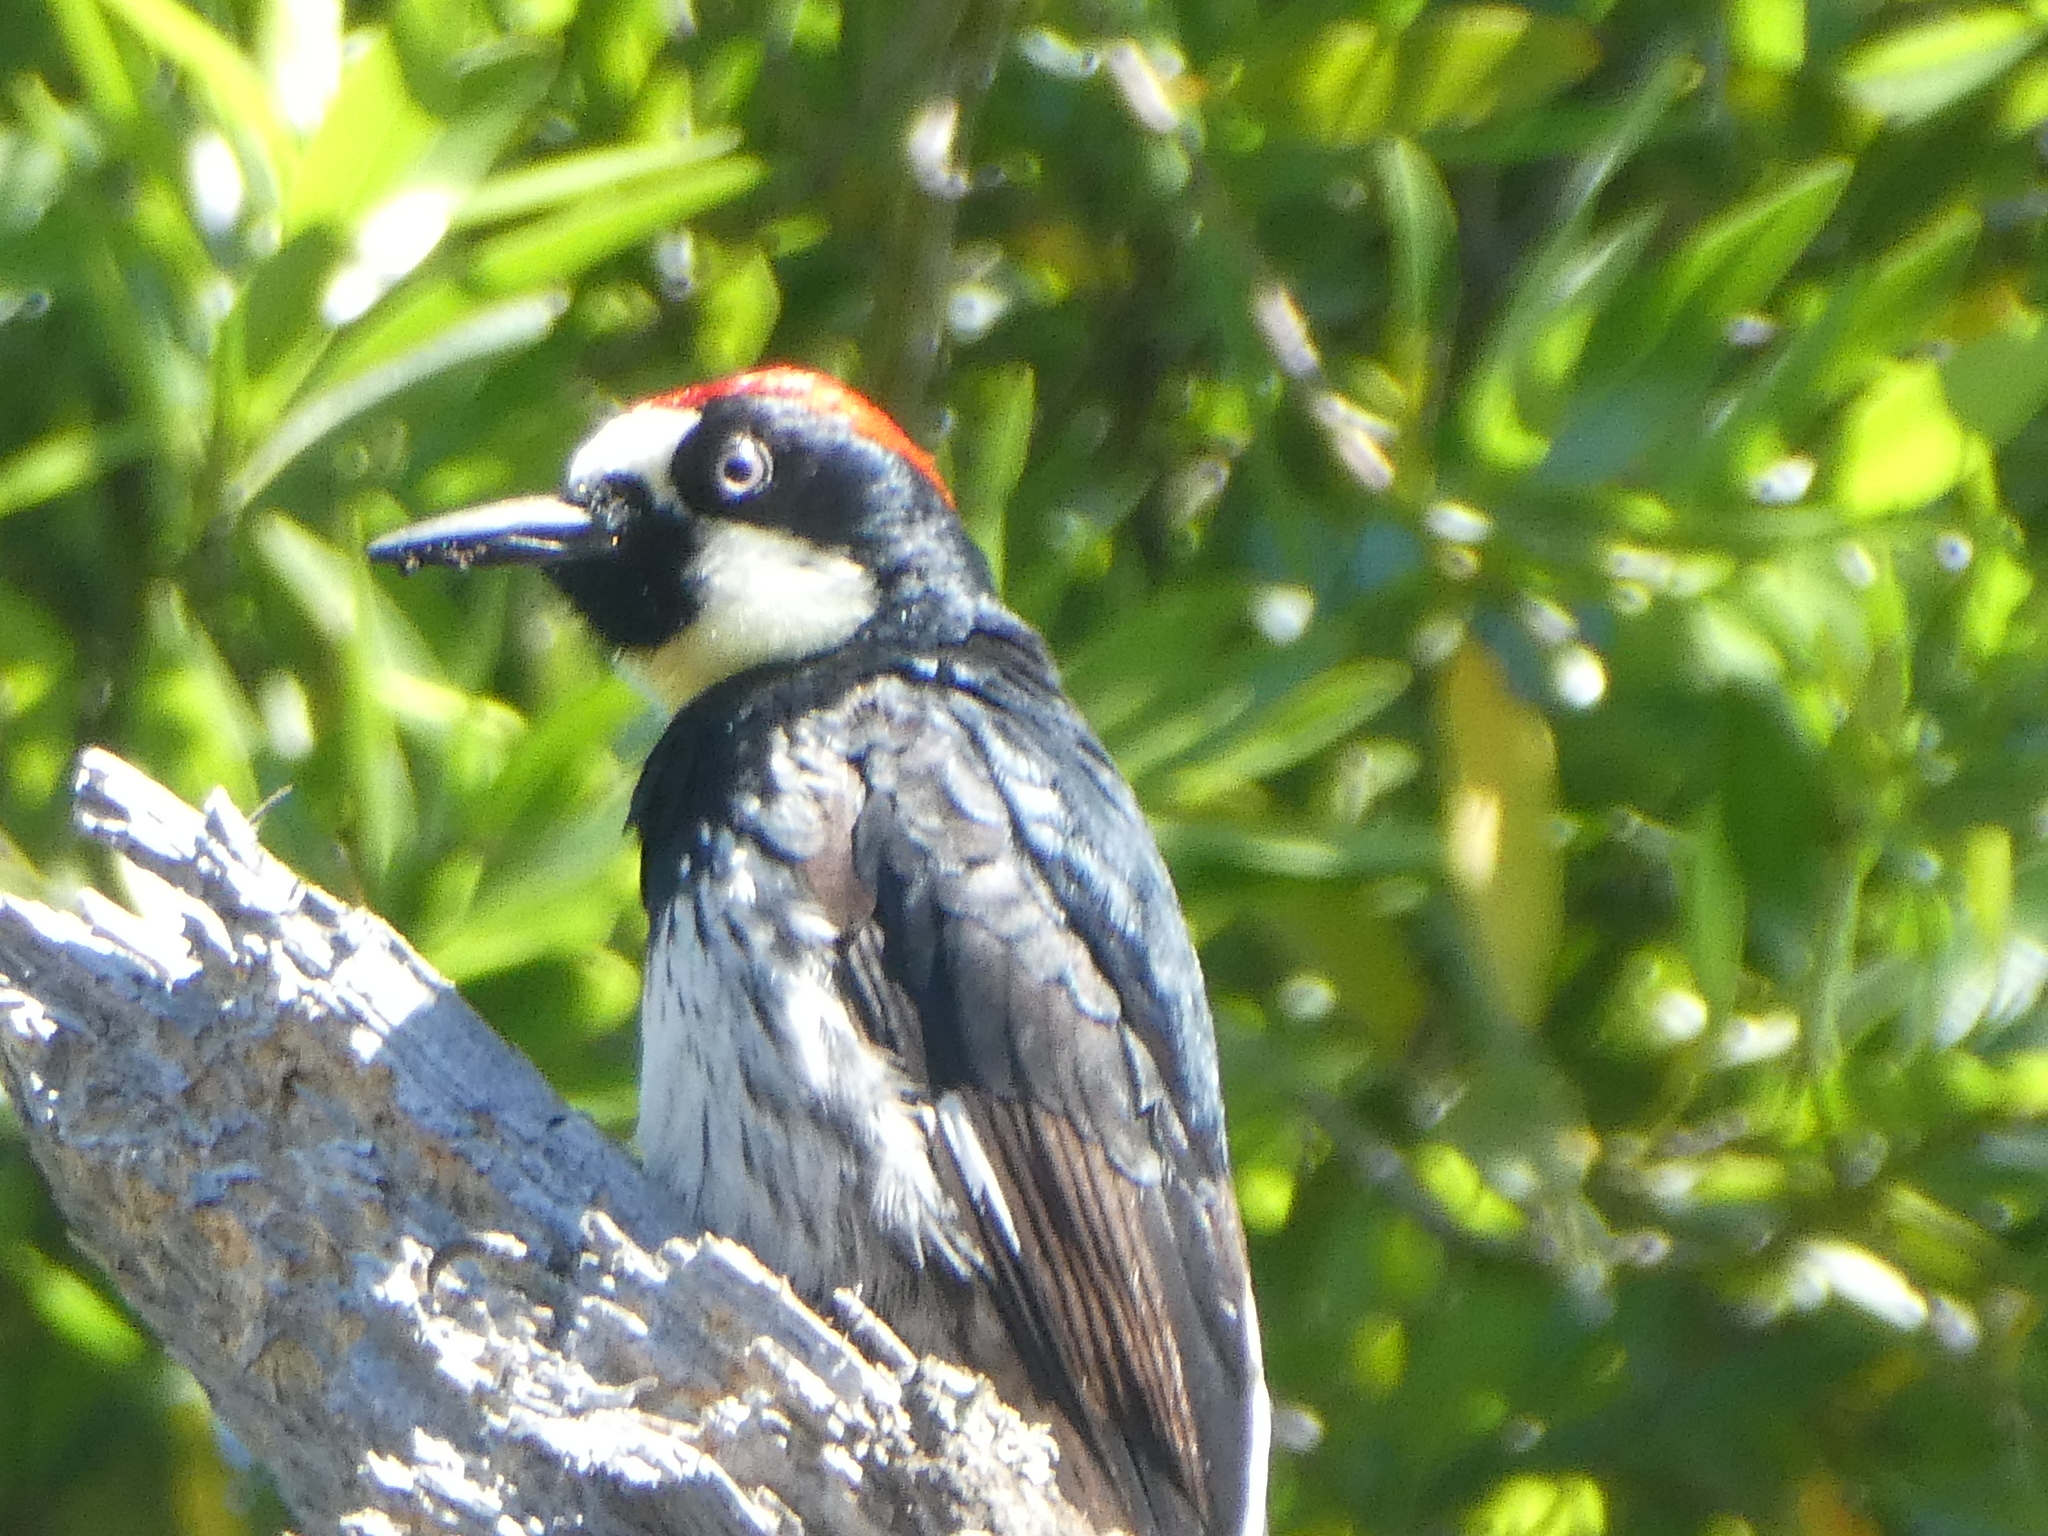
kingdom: Animalia
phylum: Chordata
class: Aves
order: Piciformes
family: Picidae
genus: Melanerpes
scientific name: Melanerpes formicivorus
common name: Acorn woodpecker
